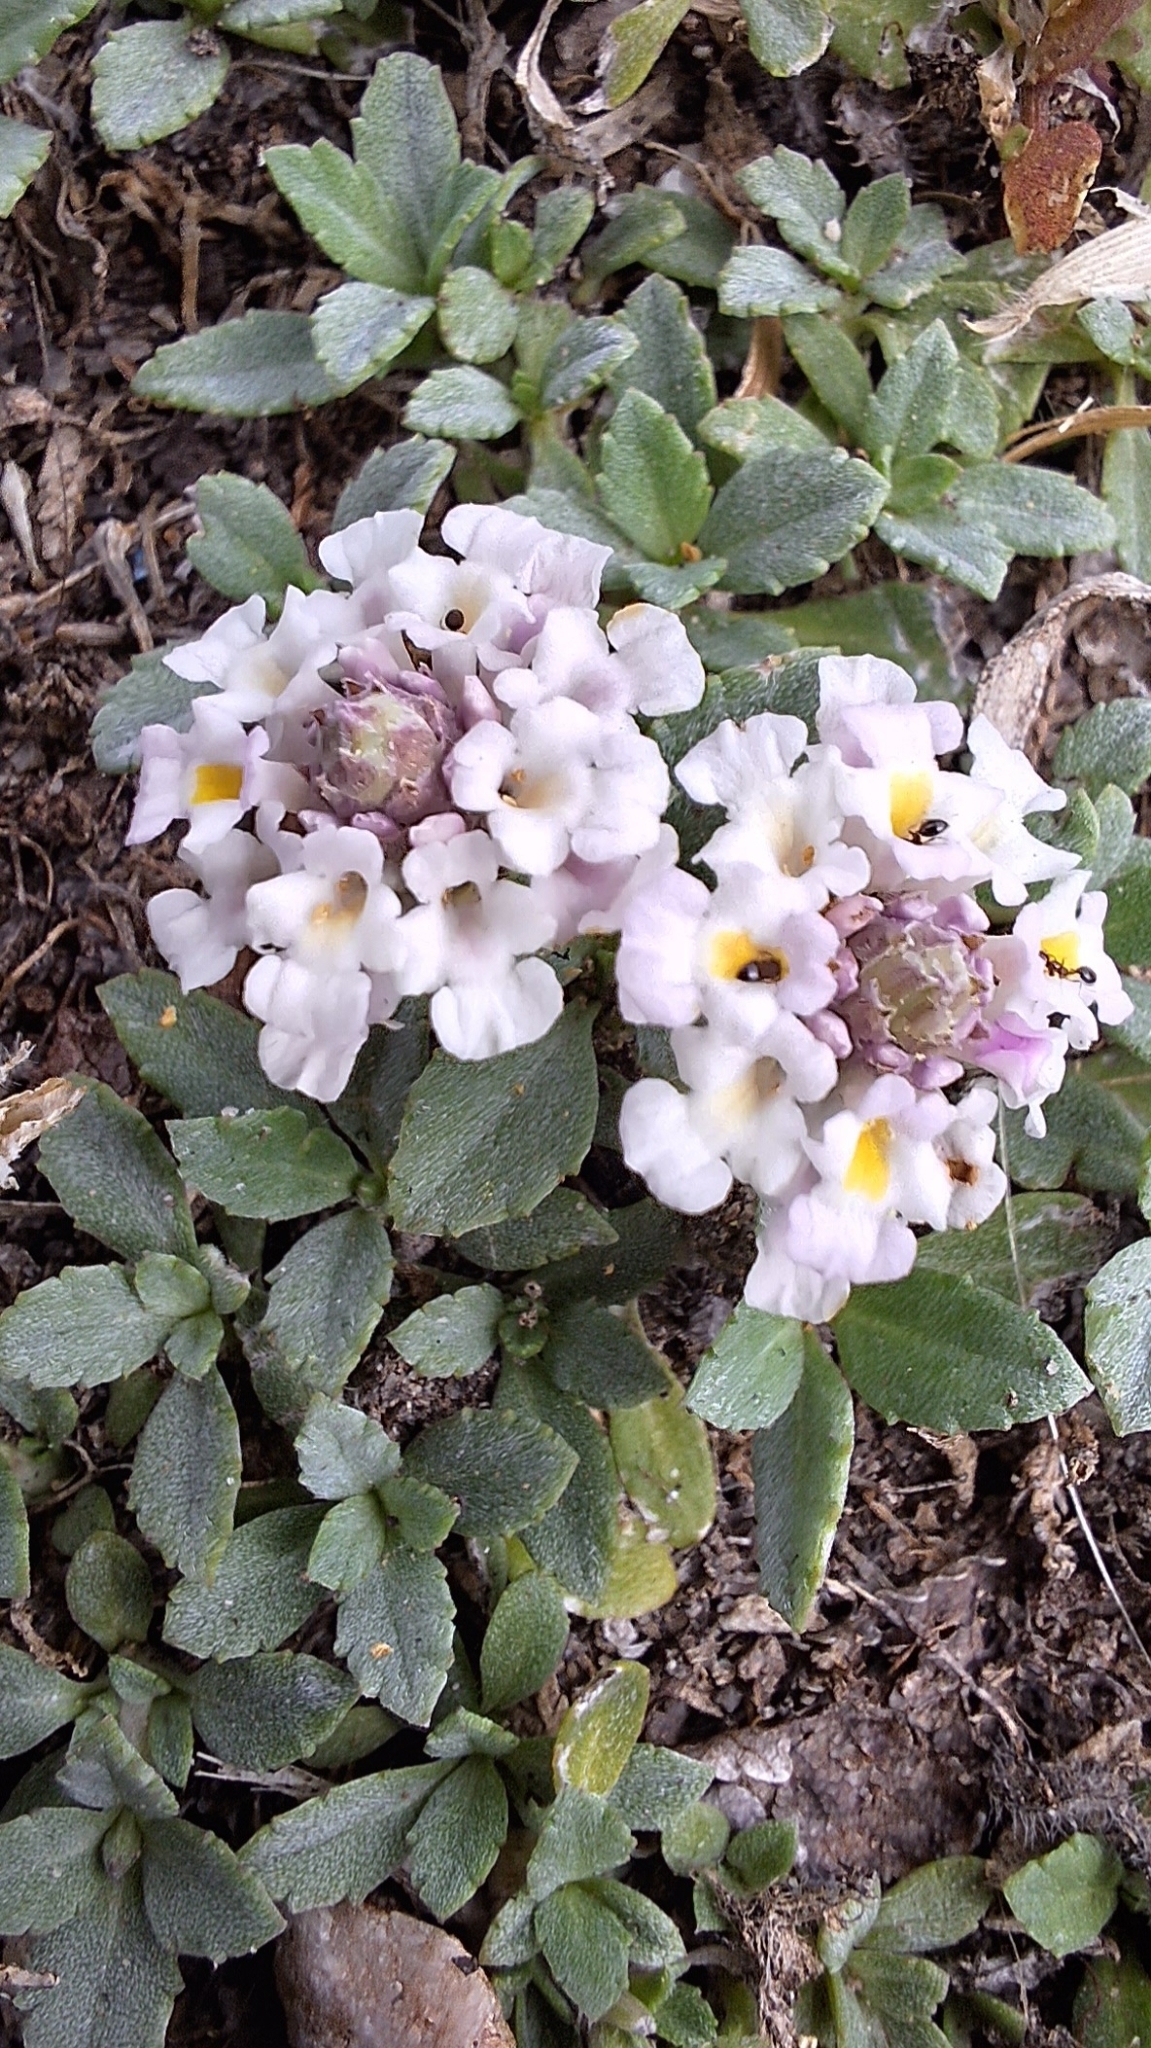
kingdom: Plantae
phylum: Tracheophyta
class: Magnoliopsida
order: Lamiales
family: Verbenaceae
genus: Phyla
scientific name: Phyla nodiflora
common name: Frogfruit
